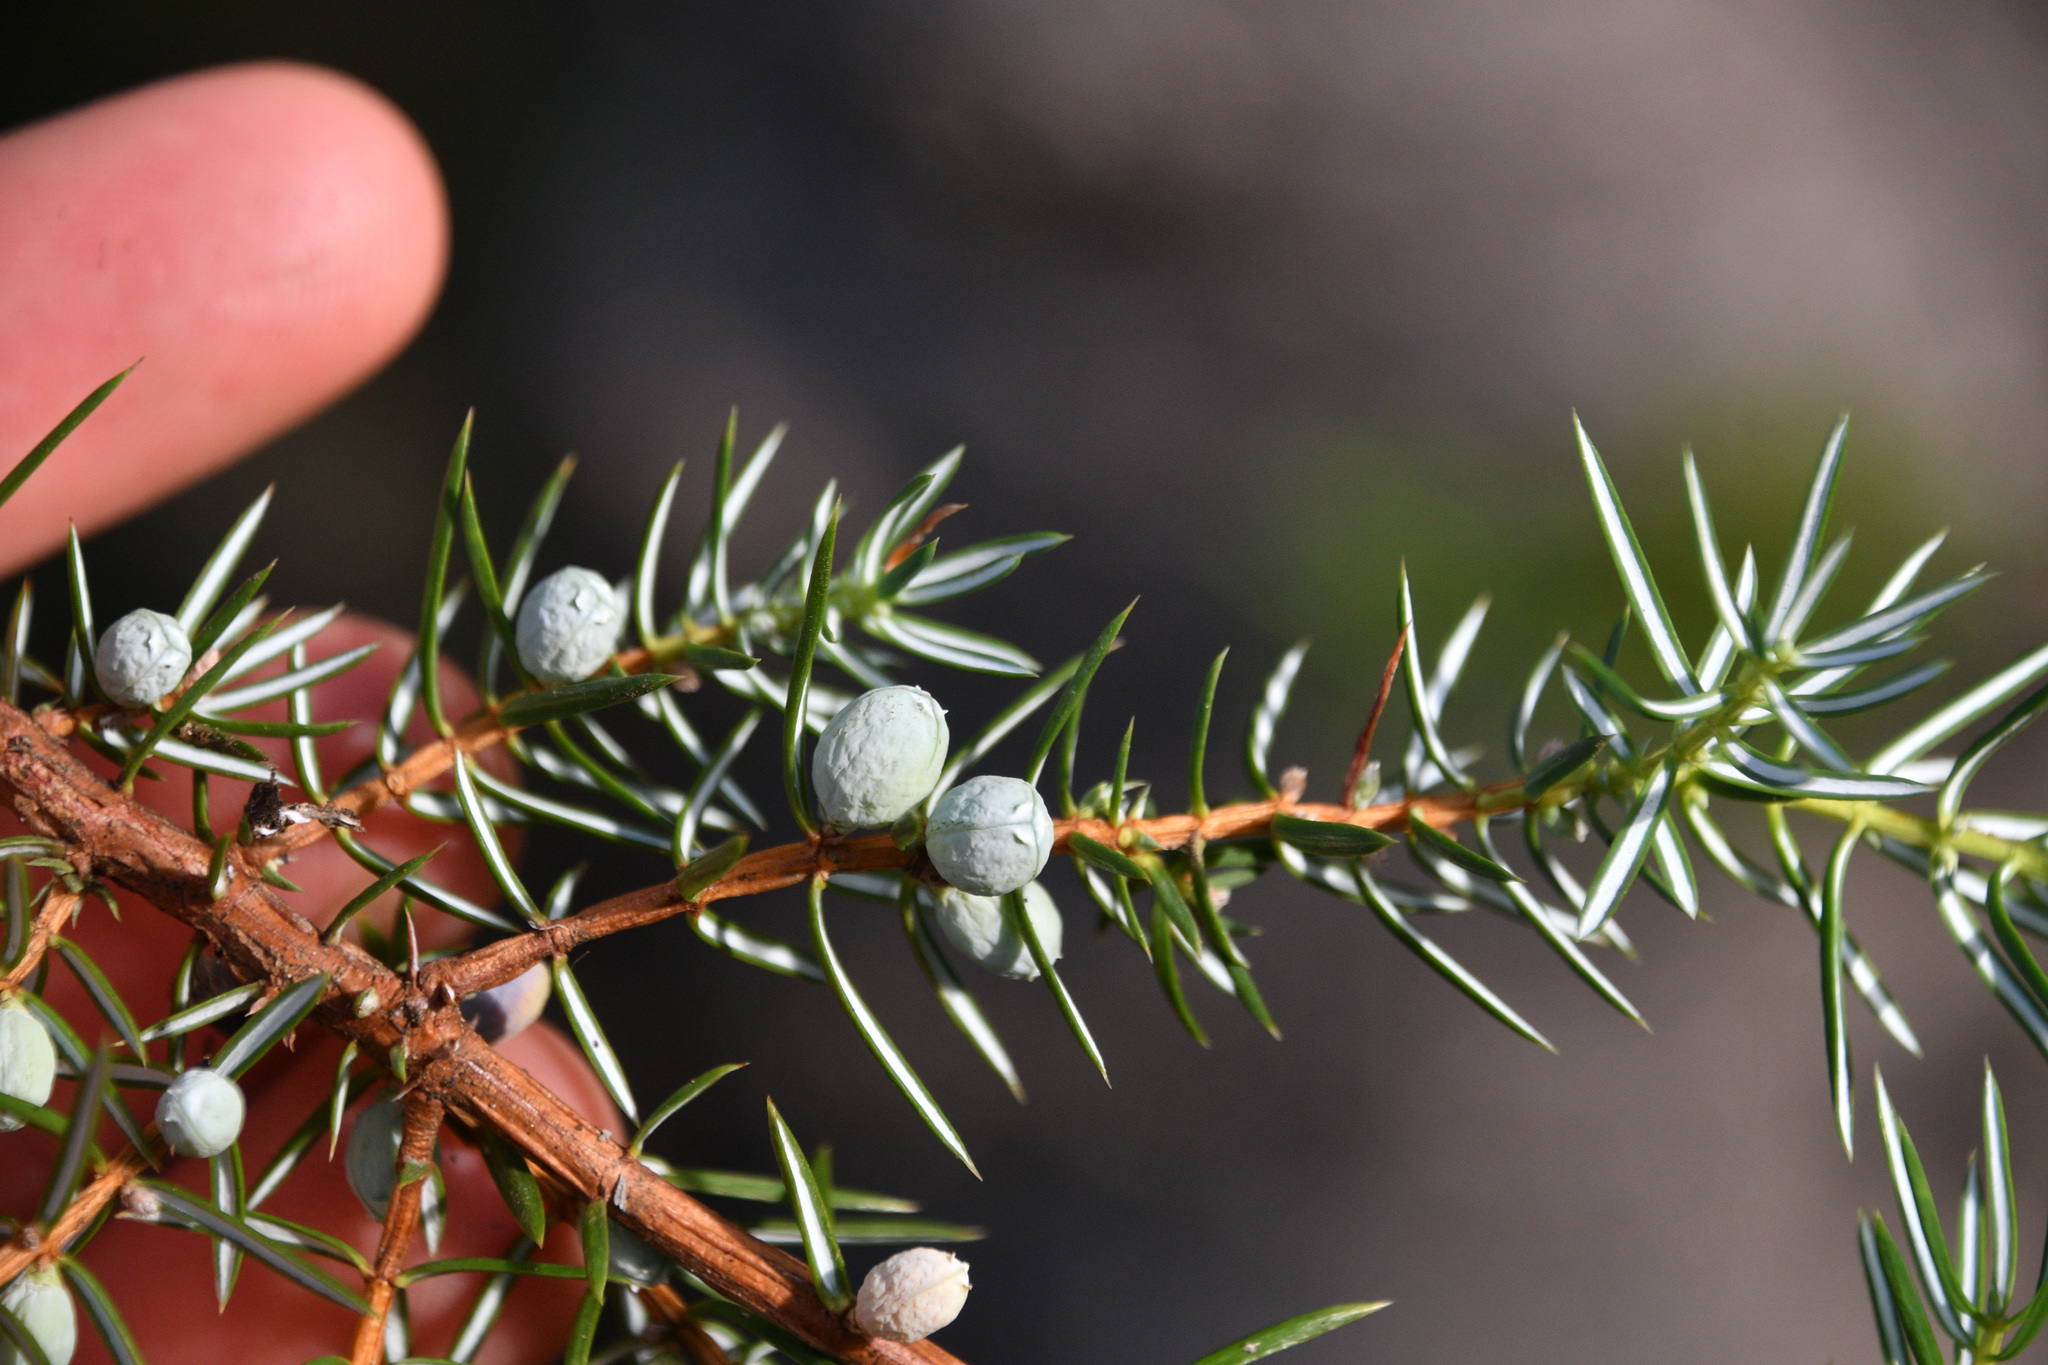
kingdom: Plantae
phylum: Tracheophyta
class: Pinopsida
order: Pinales
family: Cupressaceae
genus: Juniperus
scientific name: Juniperus communis
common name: Common juniper
